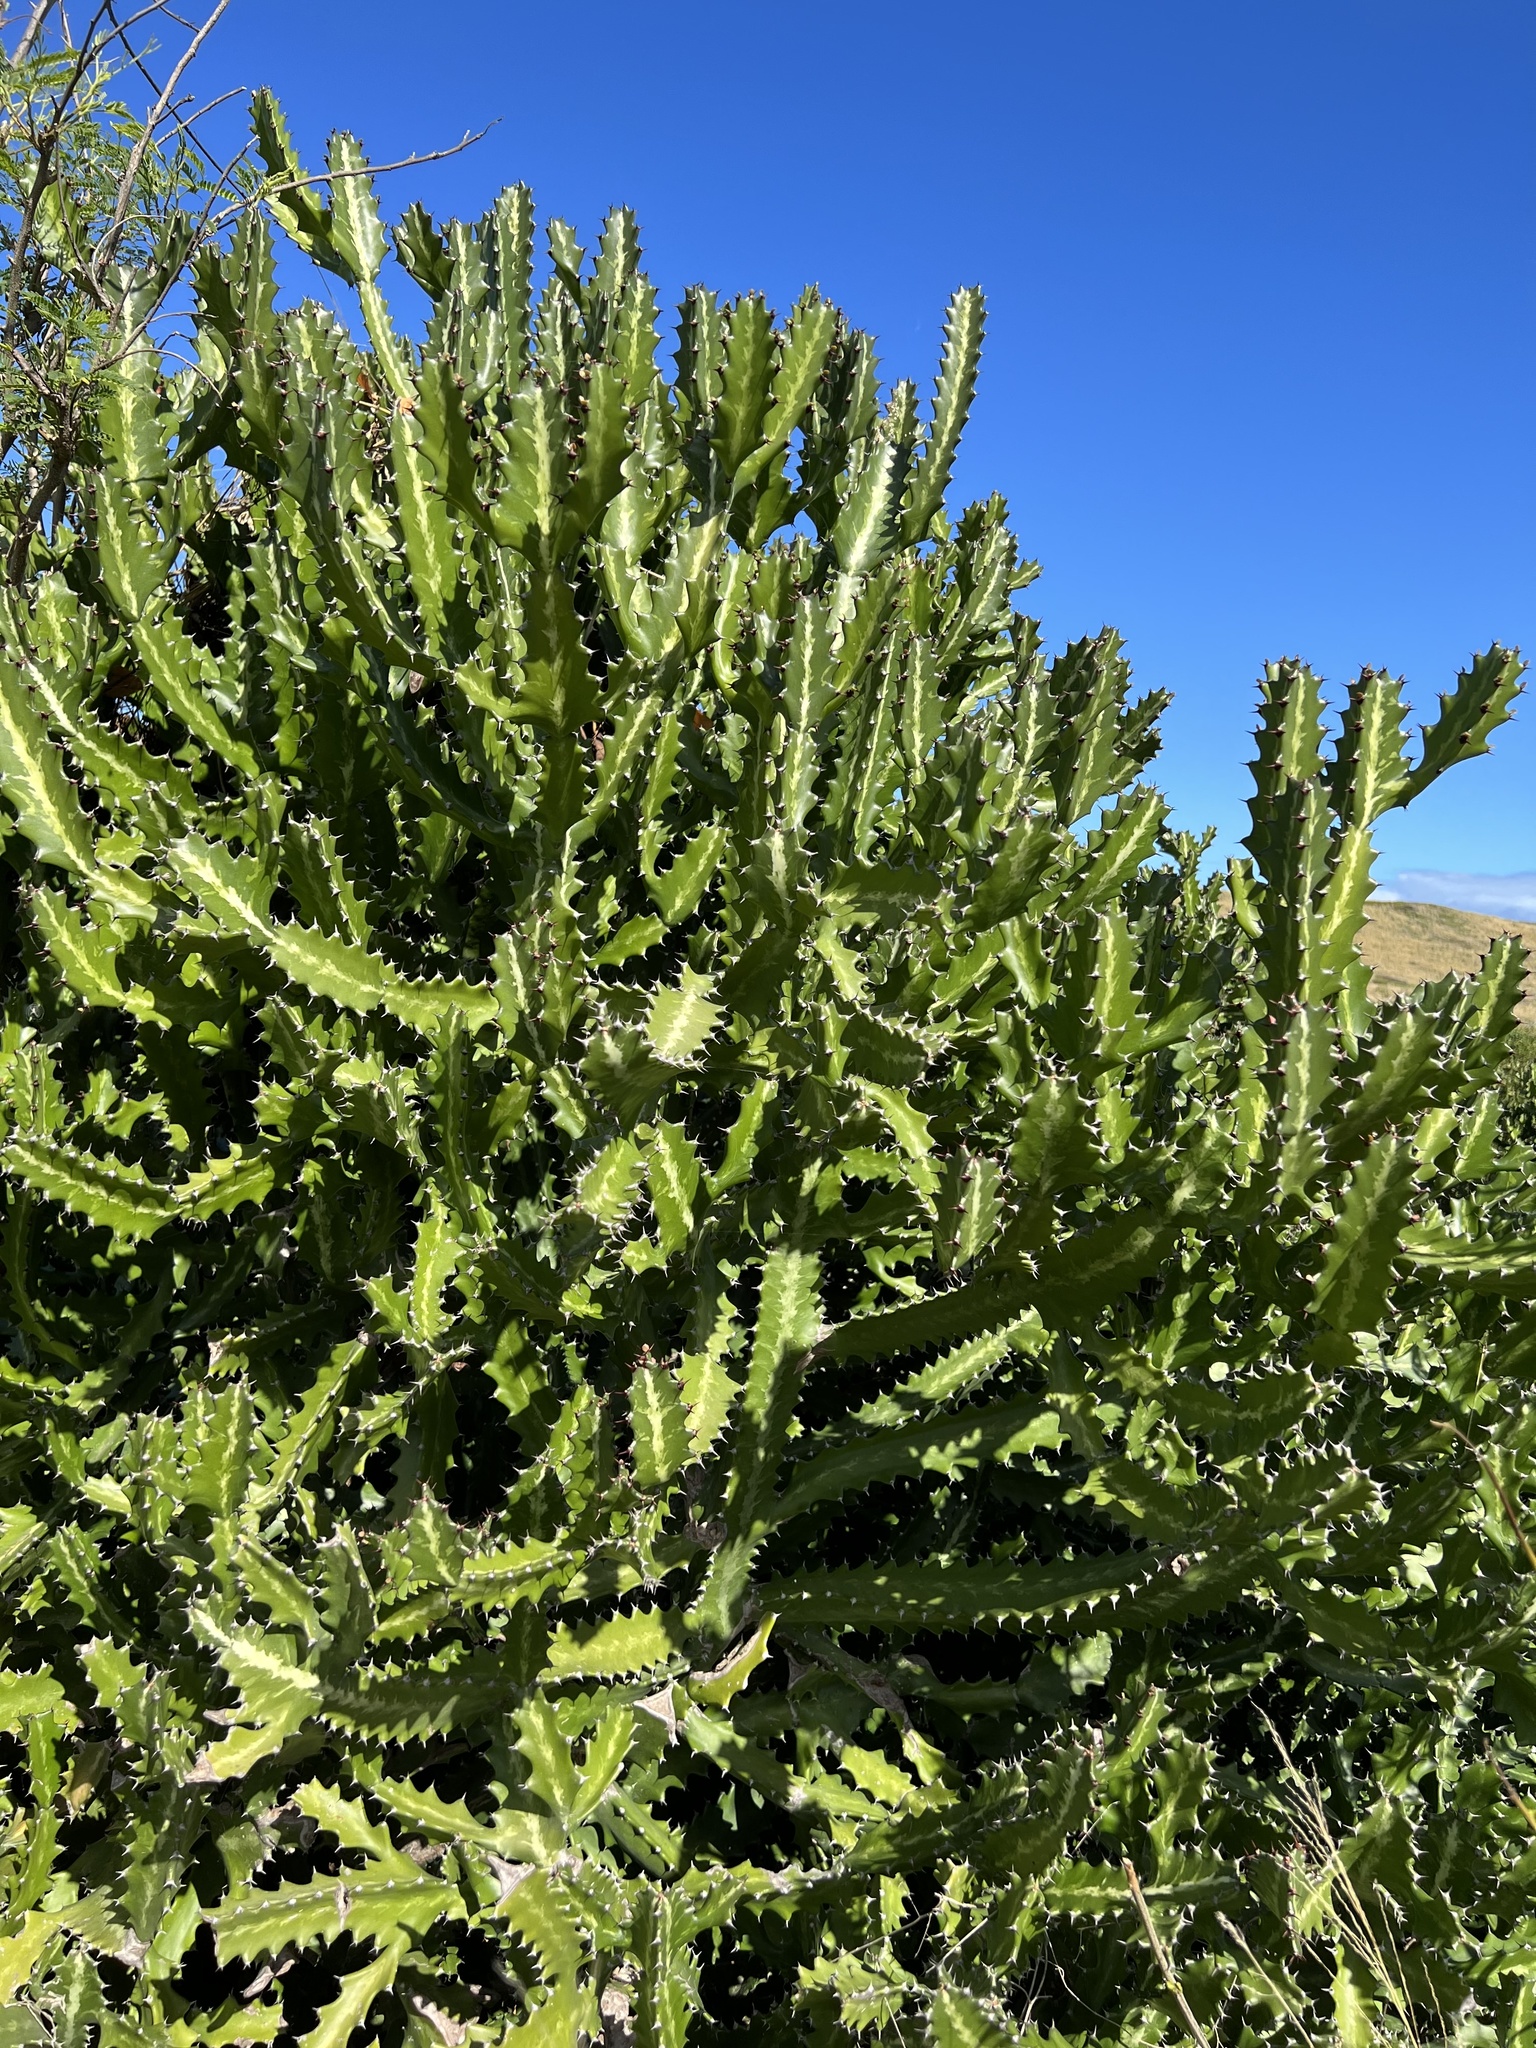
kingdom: Plantae
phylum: Tracheophyta
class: Magnoliopsida
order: Malpighiales
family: Euphorbiaceae
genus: Euphorbia
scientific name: Euphorbia lactea
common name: Mottled spurge
